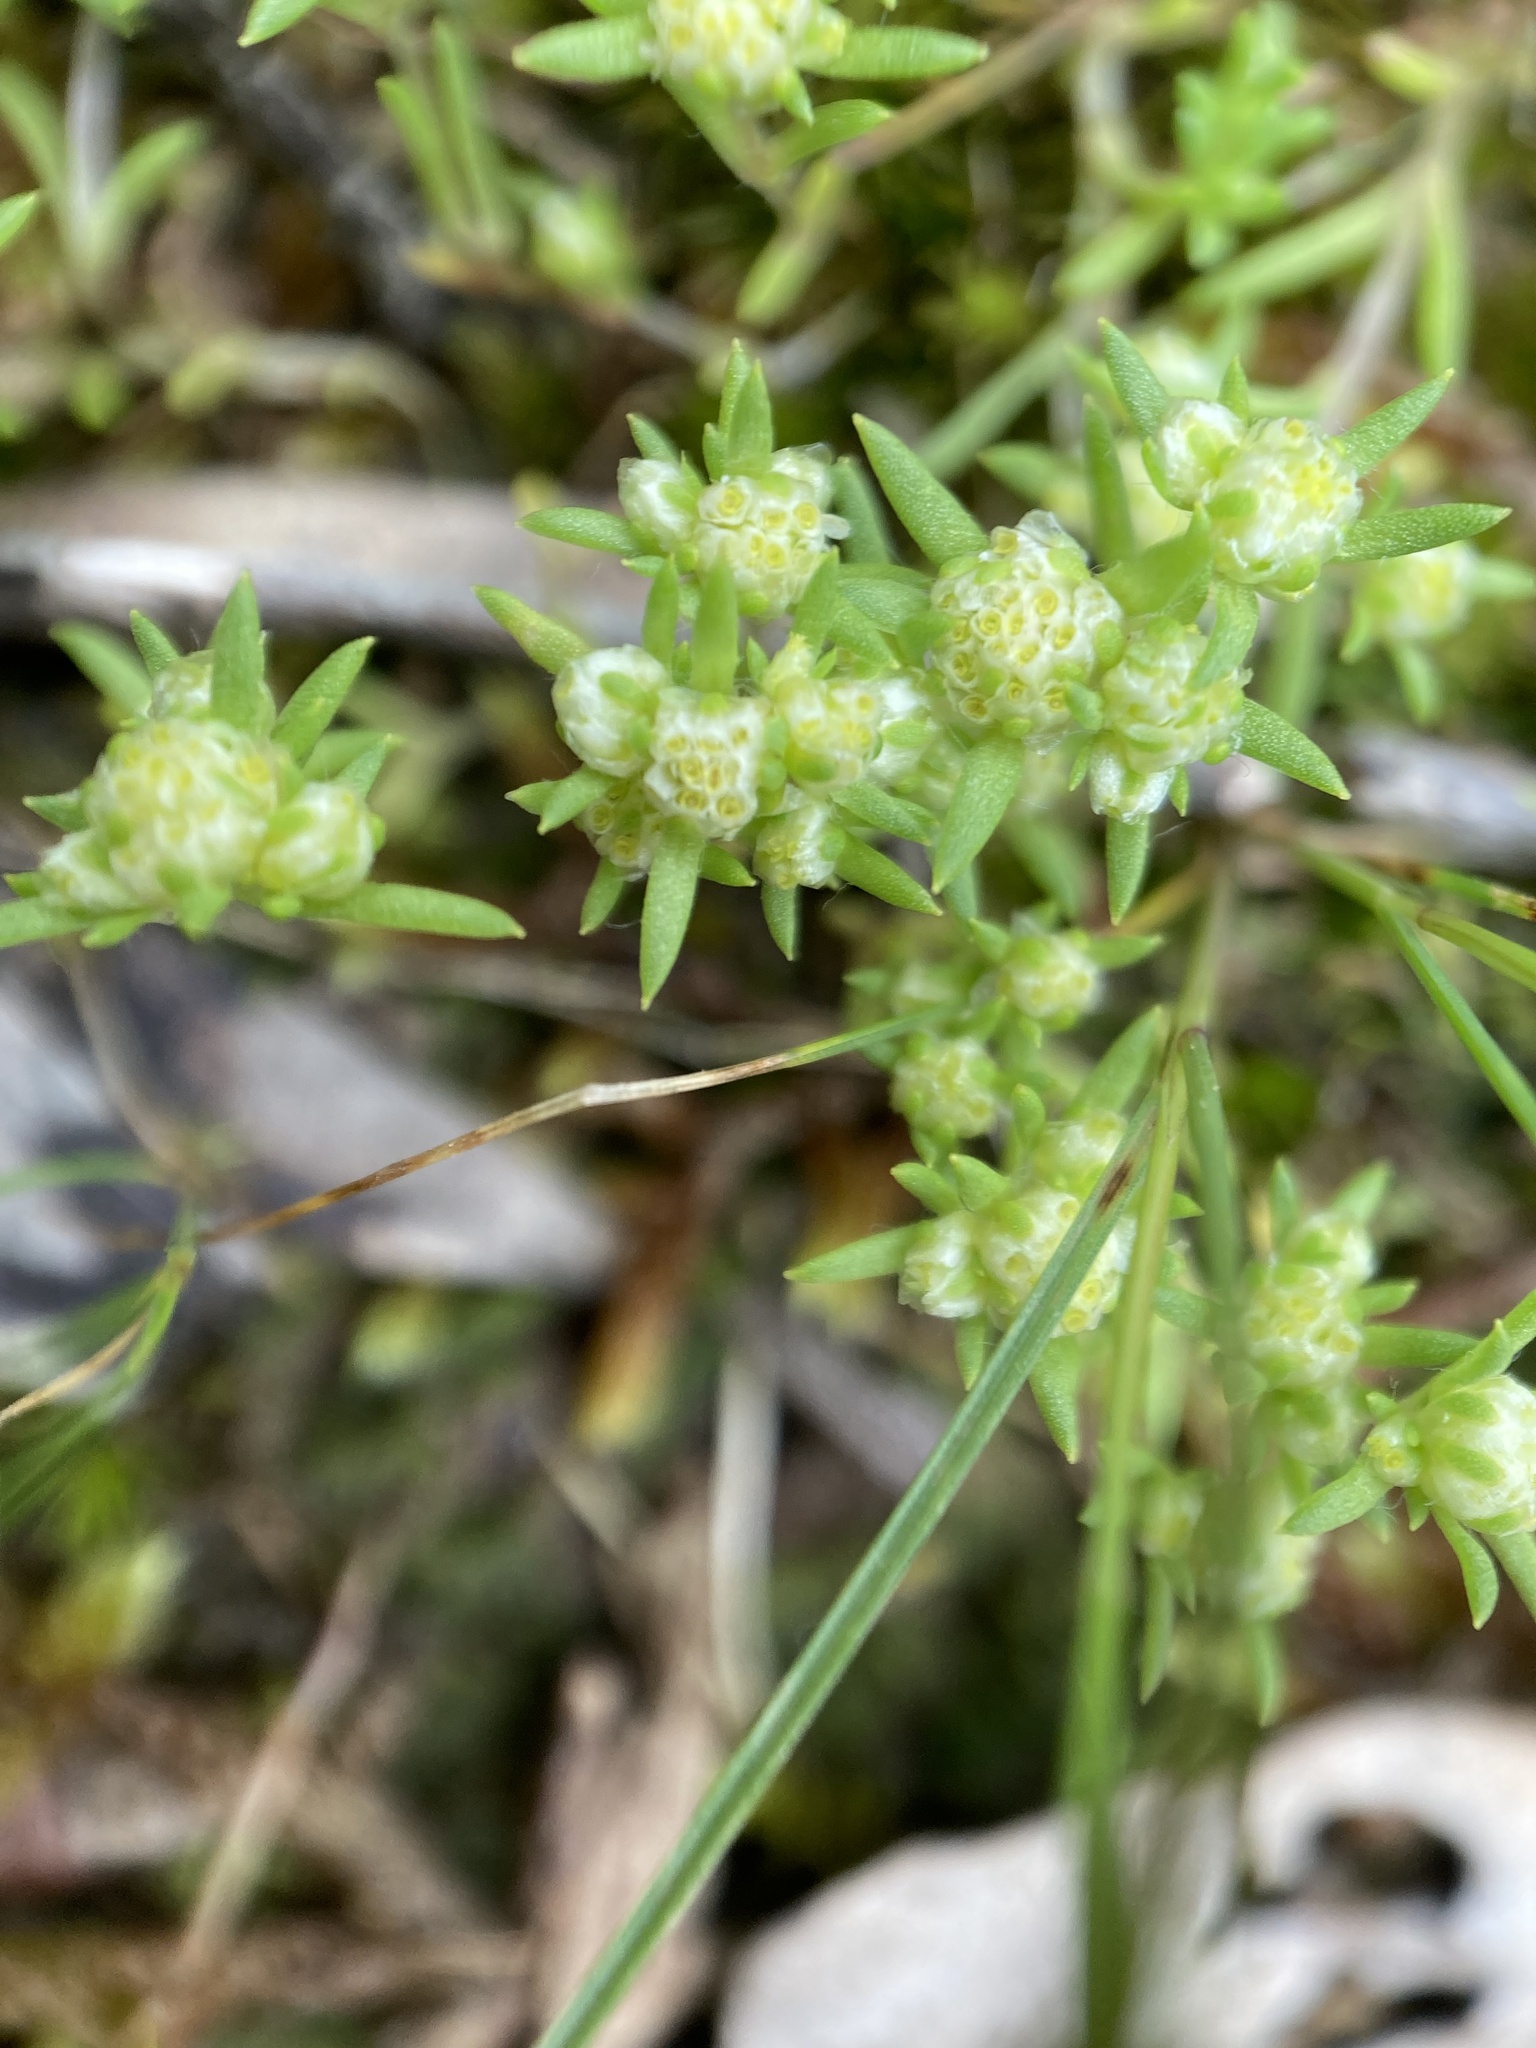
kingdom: Plantae
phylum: Tracheophyta
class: Magnoliopsida
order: Asterales
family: Asteraceae
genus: Siloxerus
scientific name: Siloxerus multiflorus
